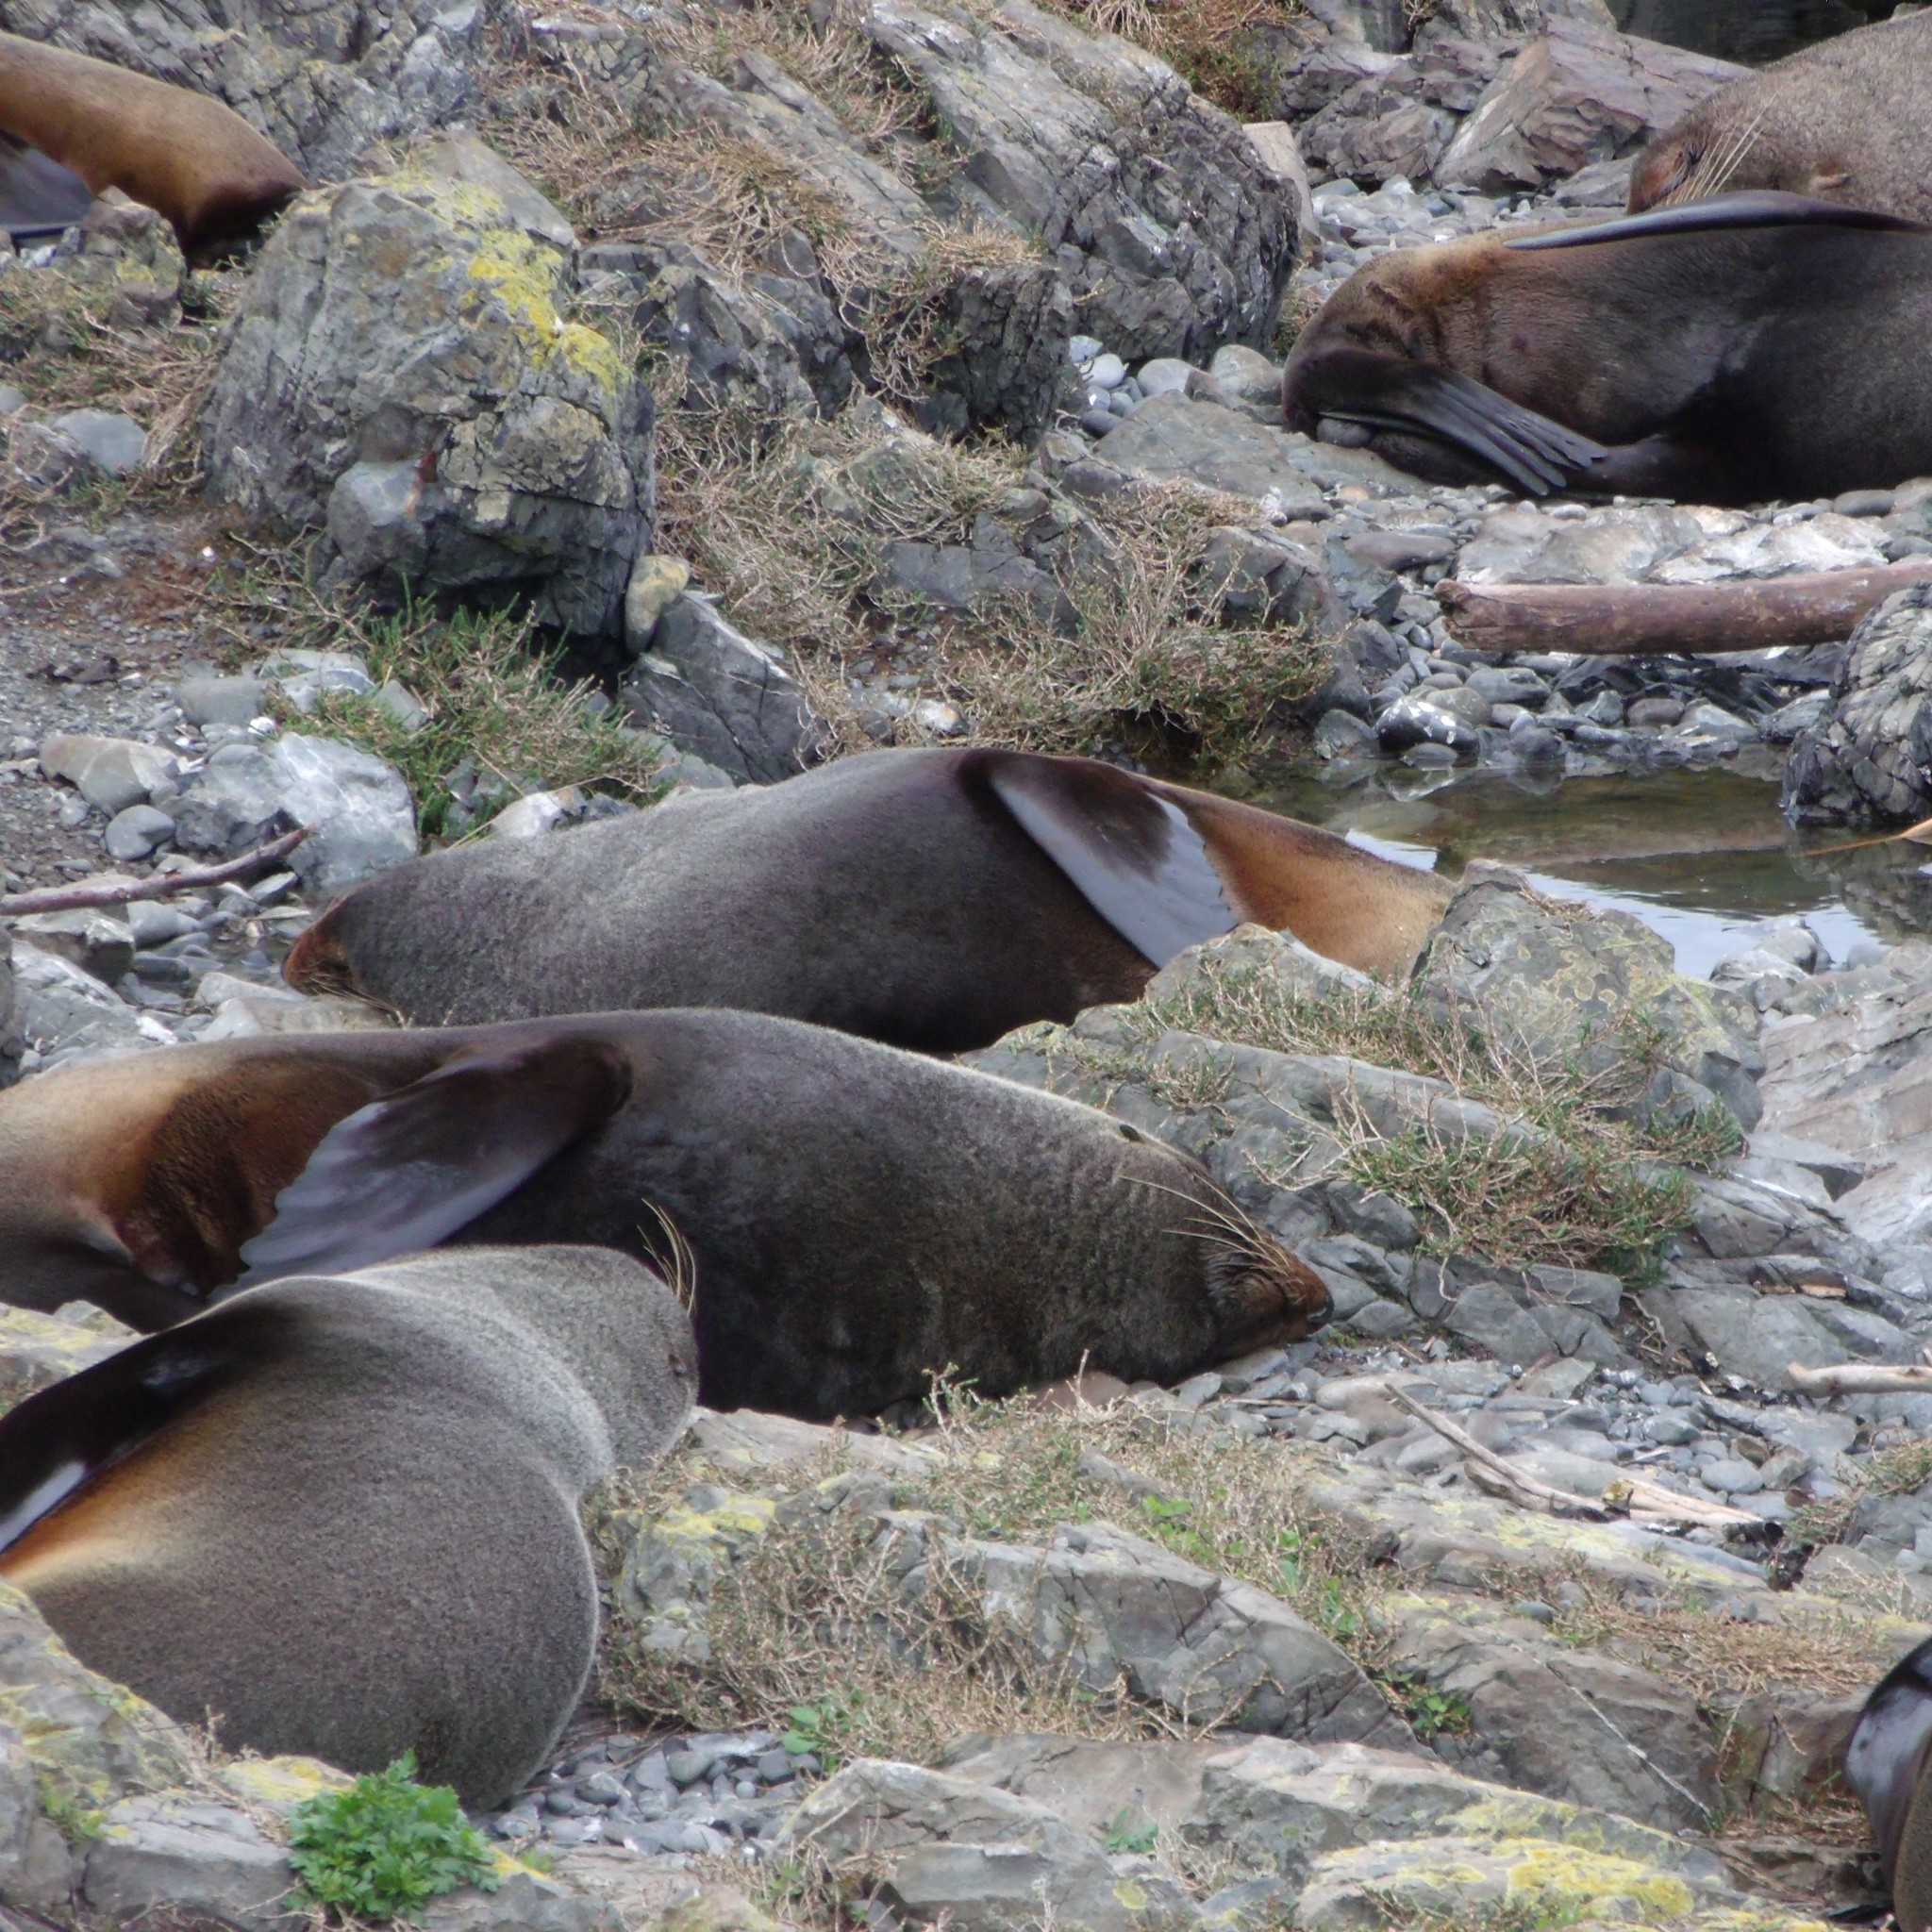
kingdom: Animalia
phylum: Chordata
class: Mammalia
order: Carnivora
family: Otariidae
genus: Arctocephalus
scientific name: Arctocephalus forsteri
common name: New zealand fur seal
